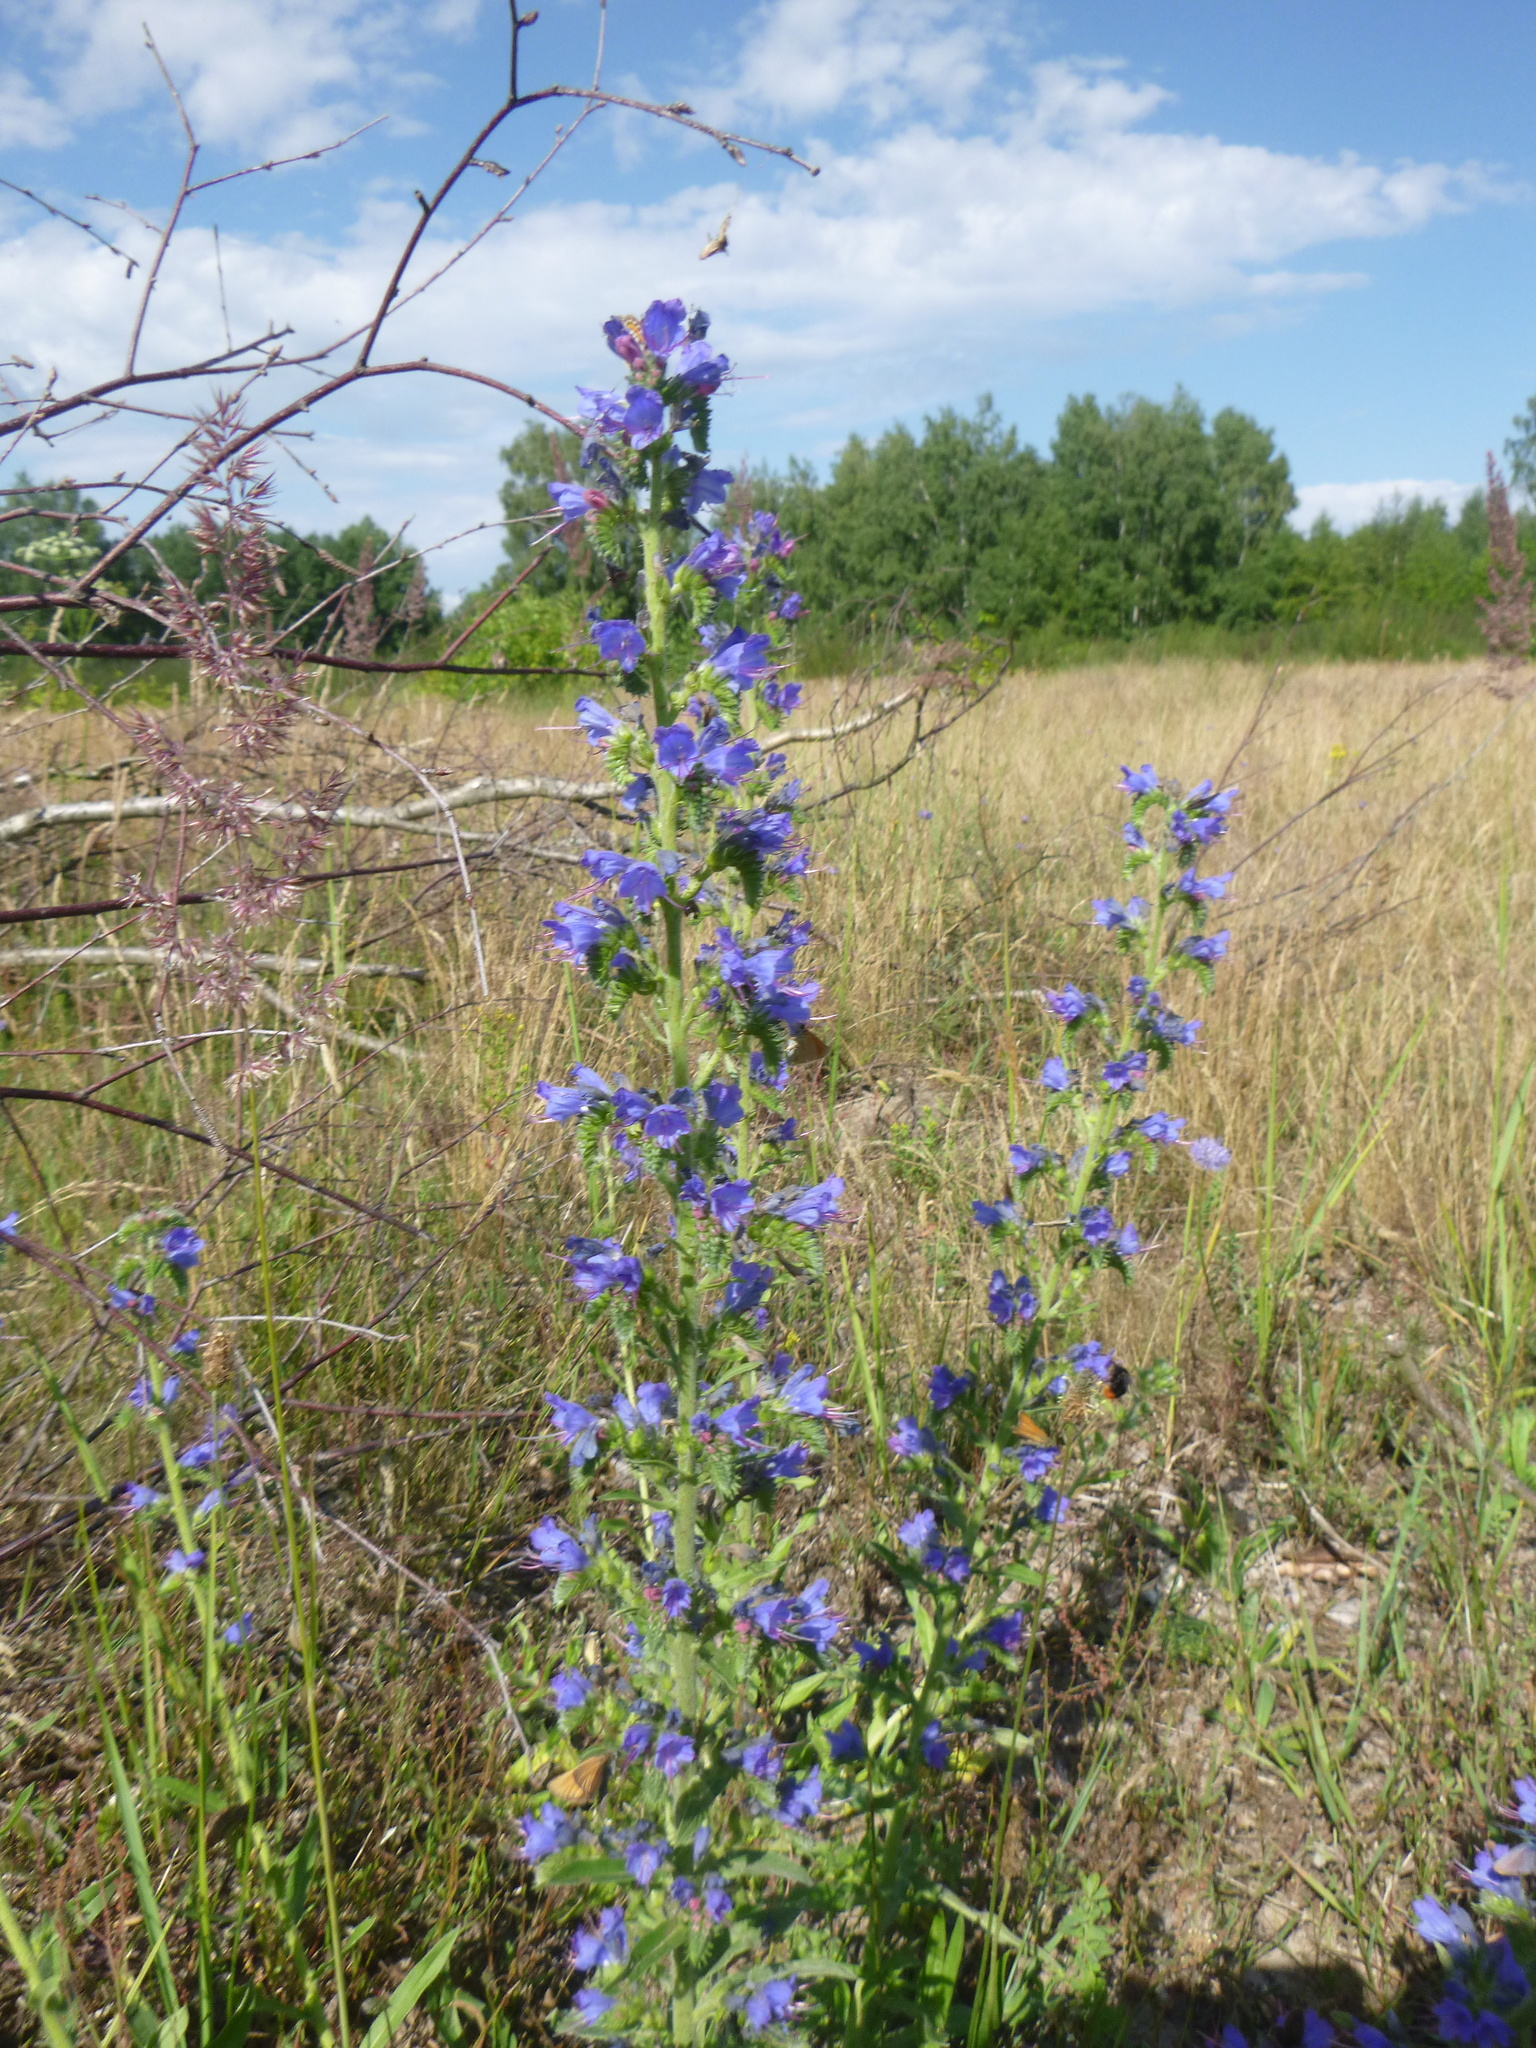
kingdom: Plantae
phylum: Tracheophyta
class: Magnoliopsida
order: Boraginales
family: Boraginaceae
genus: Echium
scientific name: Echium vulgare
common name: Common viper's bugloss
